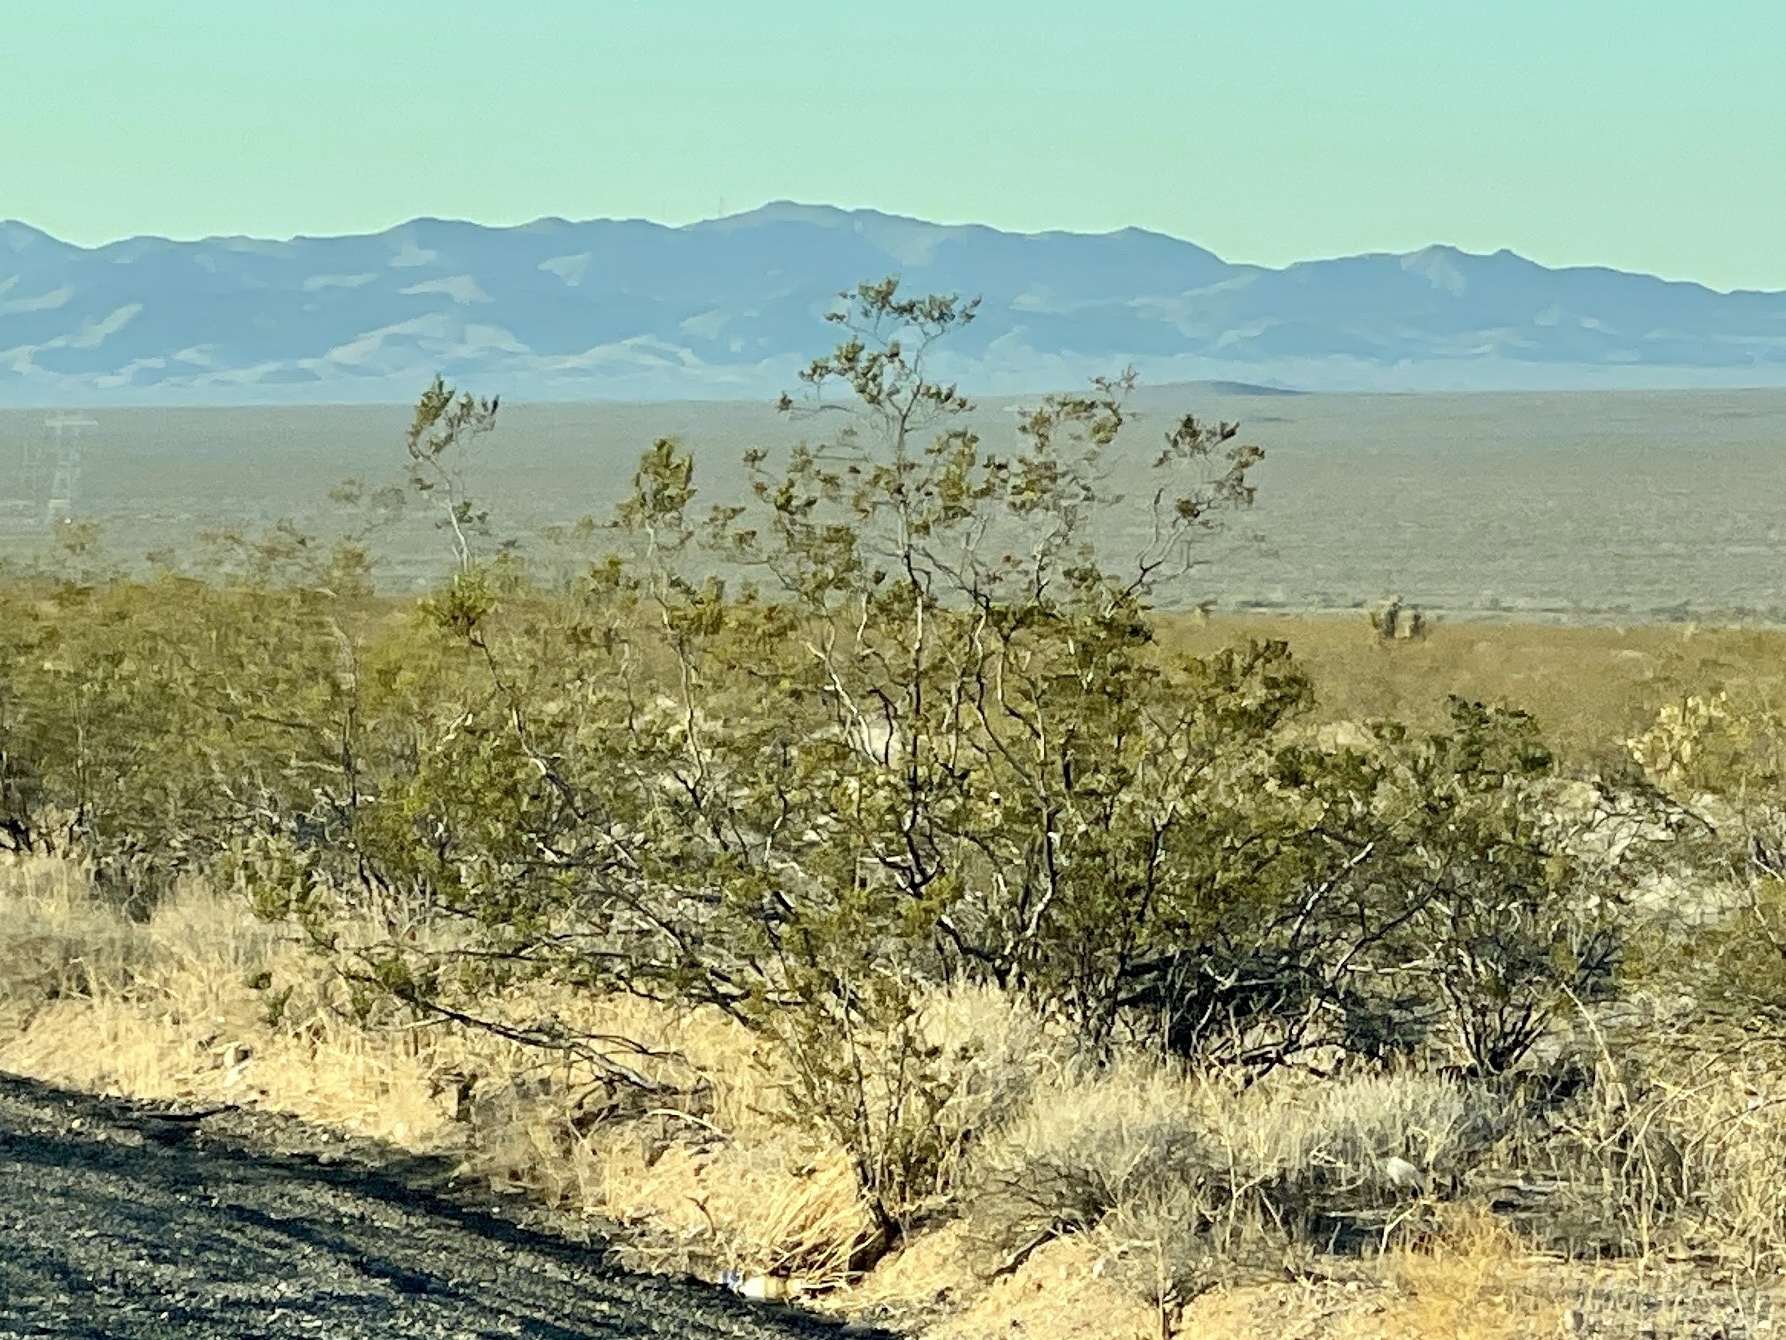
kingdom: Plantae
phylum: Tracheophyta
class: Magnoliopsida
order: Zygophyllales
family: Zygophyllaceae
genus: Larrea
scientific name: Larrea tridentata
